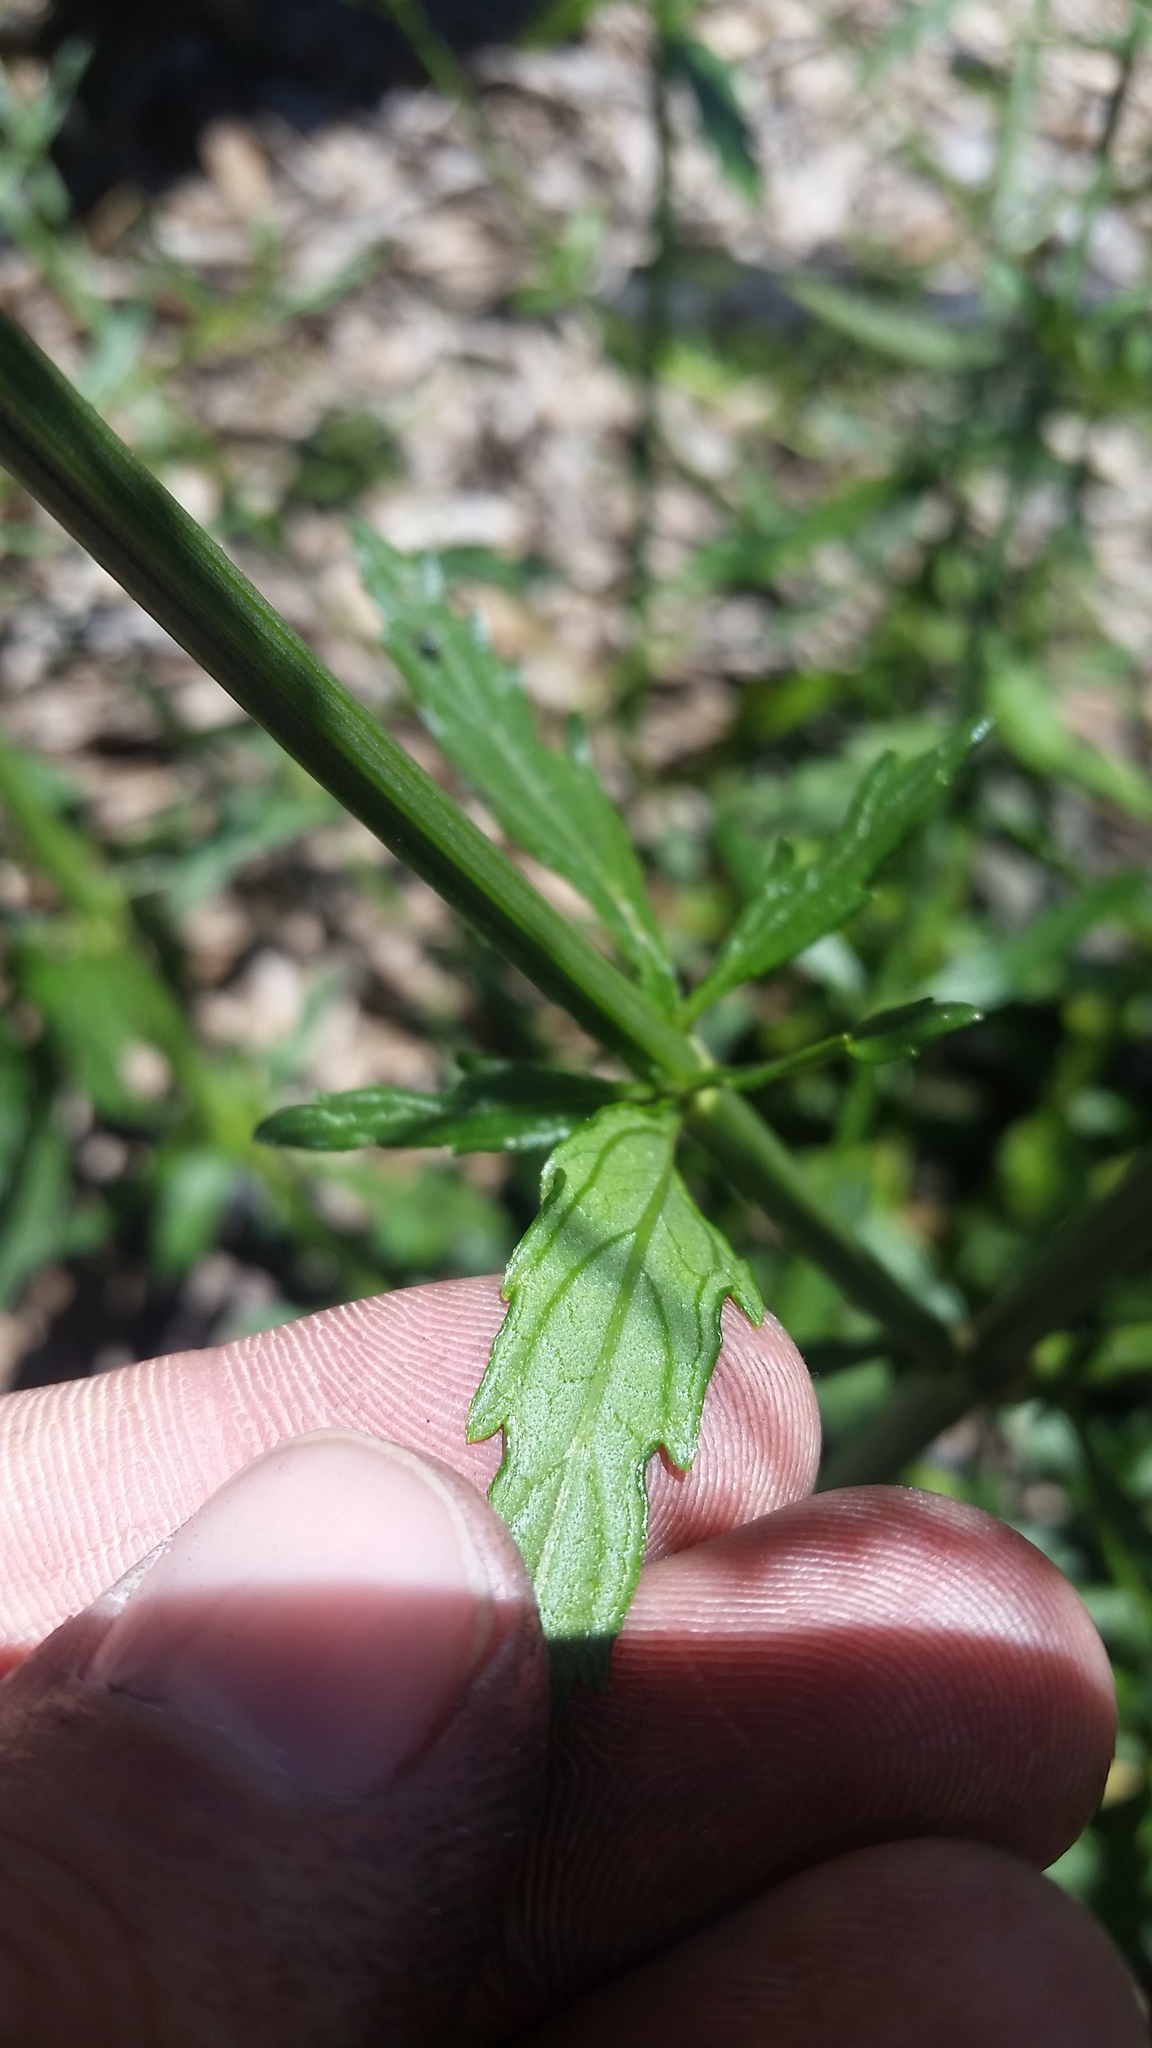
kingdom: Plantae
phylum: Tracheophyta
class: Magnoliopsida
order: Lamiales
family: Verbenaceae
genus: Verbena
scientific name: Verbena litoralis
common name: Seashore vervain
